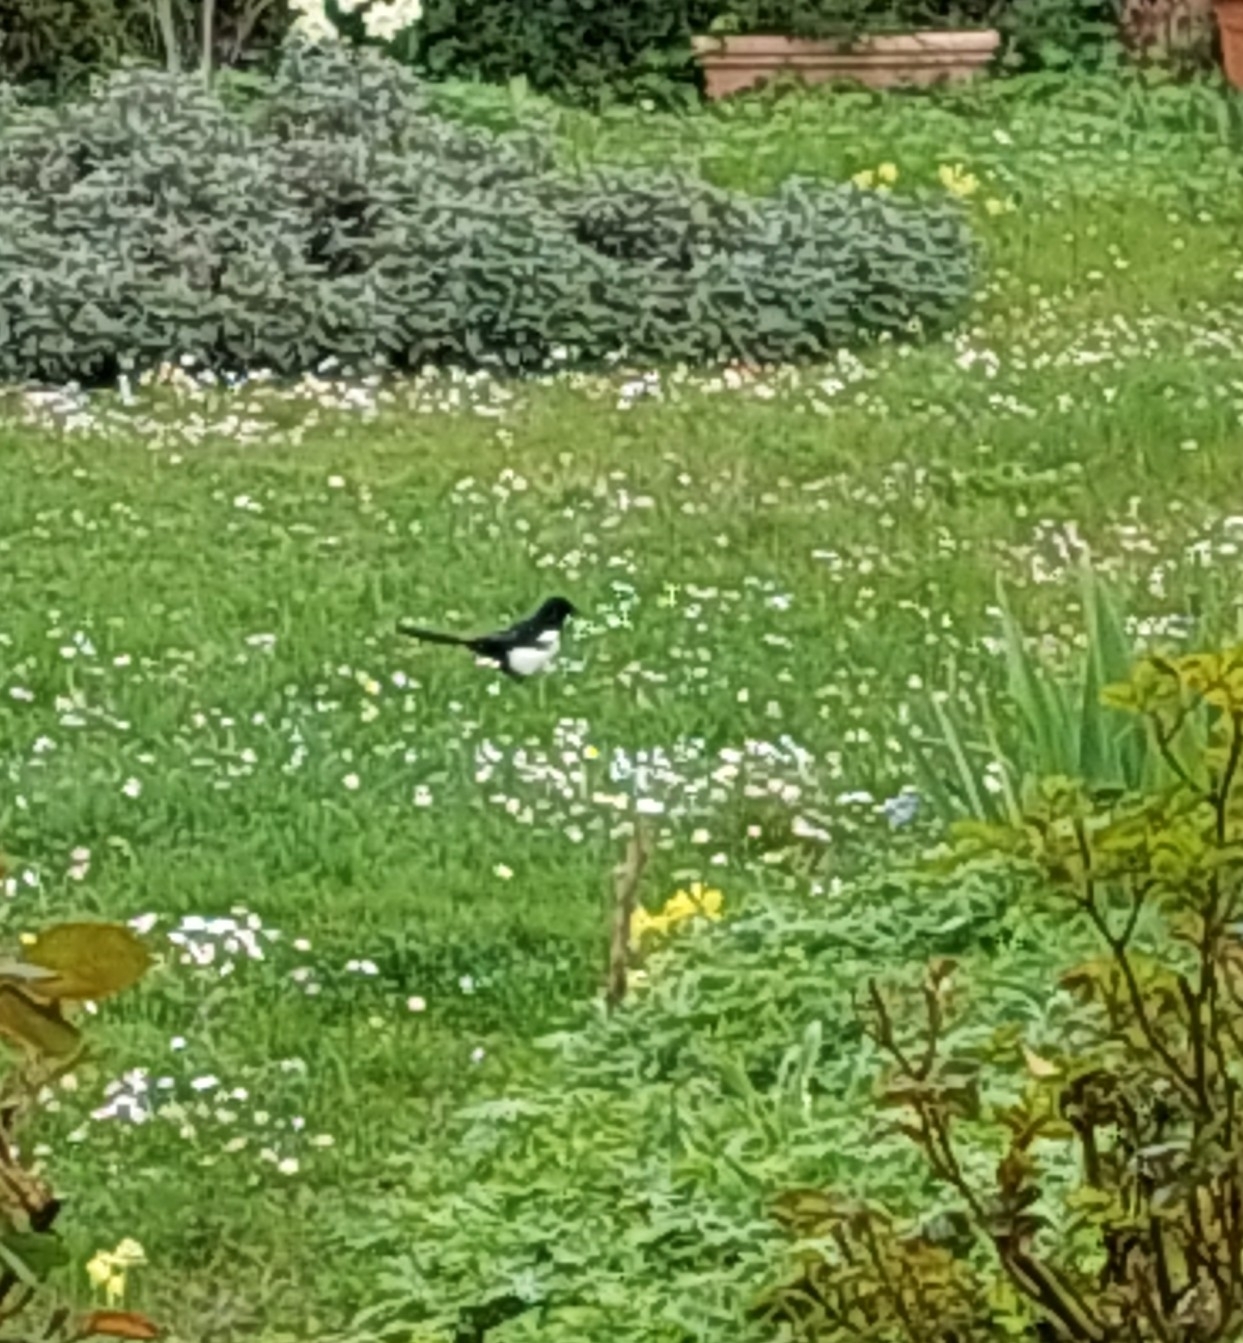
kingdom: Animalia
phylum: Chordata
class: Aves
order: Passeriformes
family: Corvidae
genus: Pica
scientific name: Pica pica
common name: Eurasian magpie
